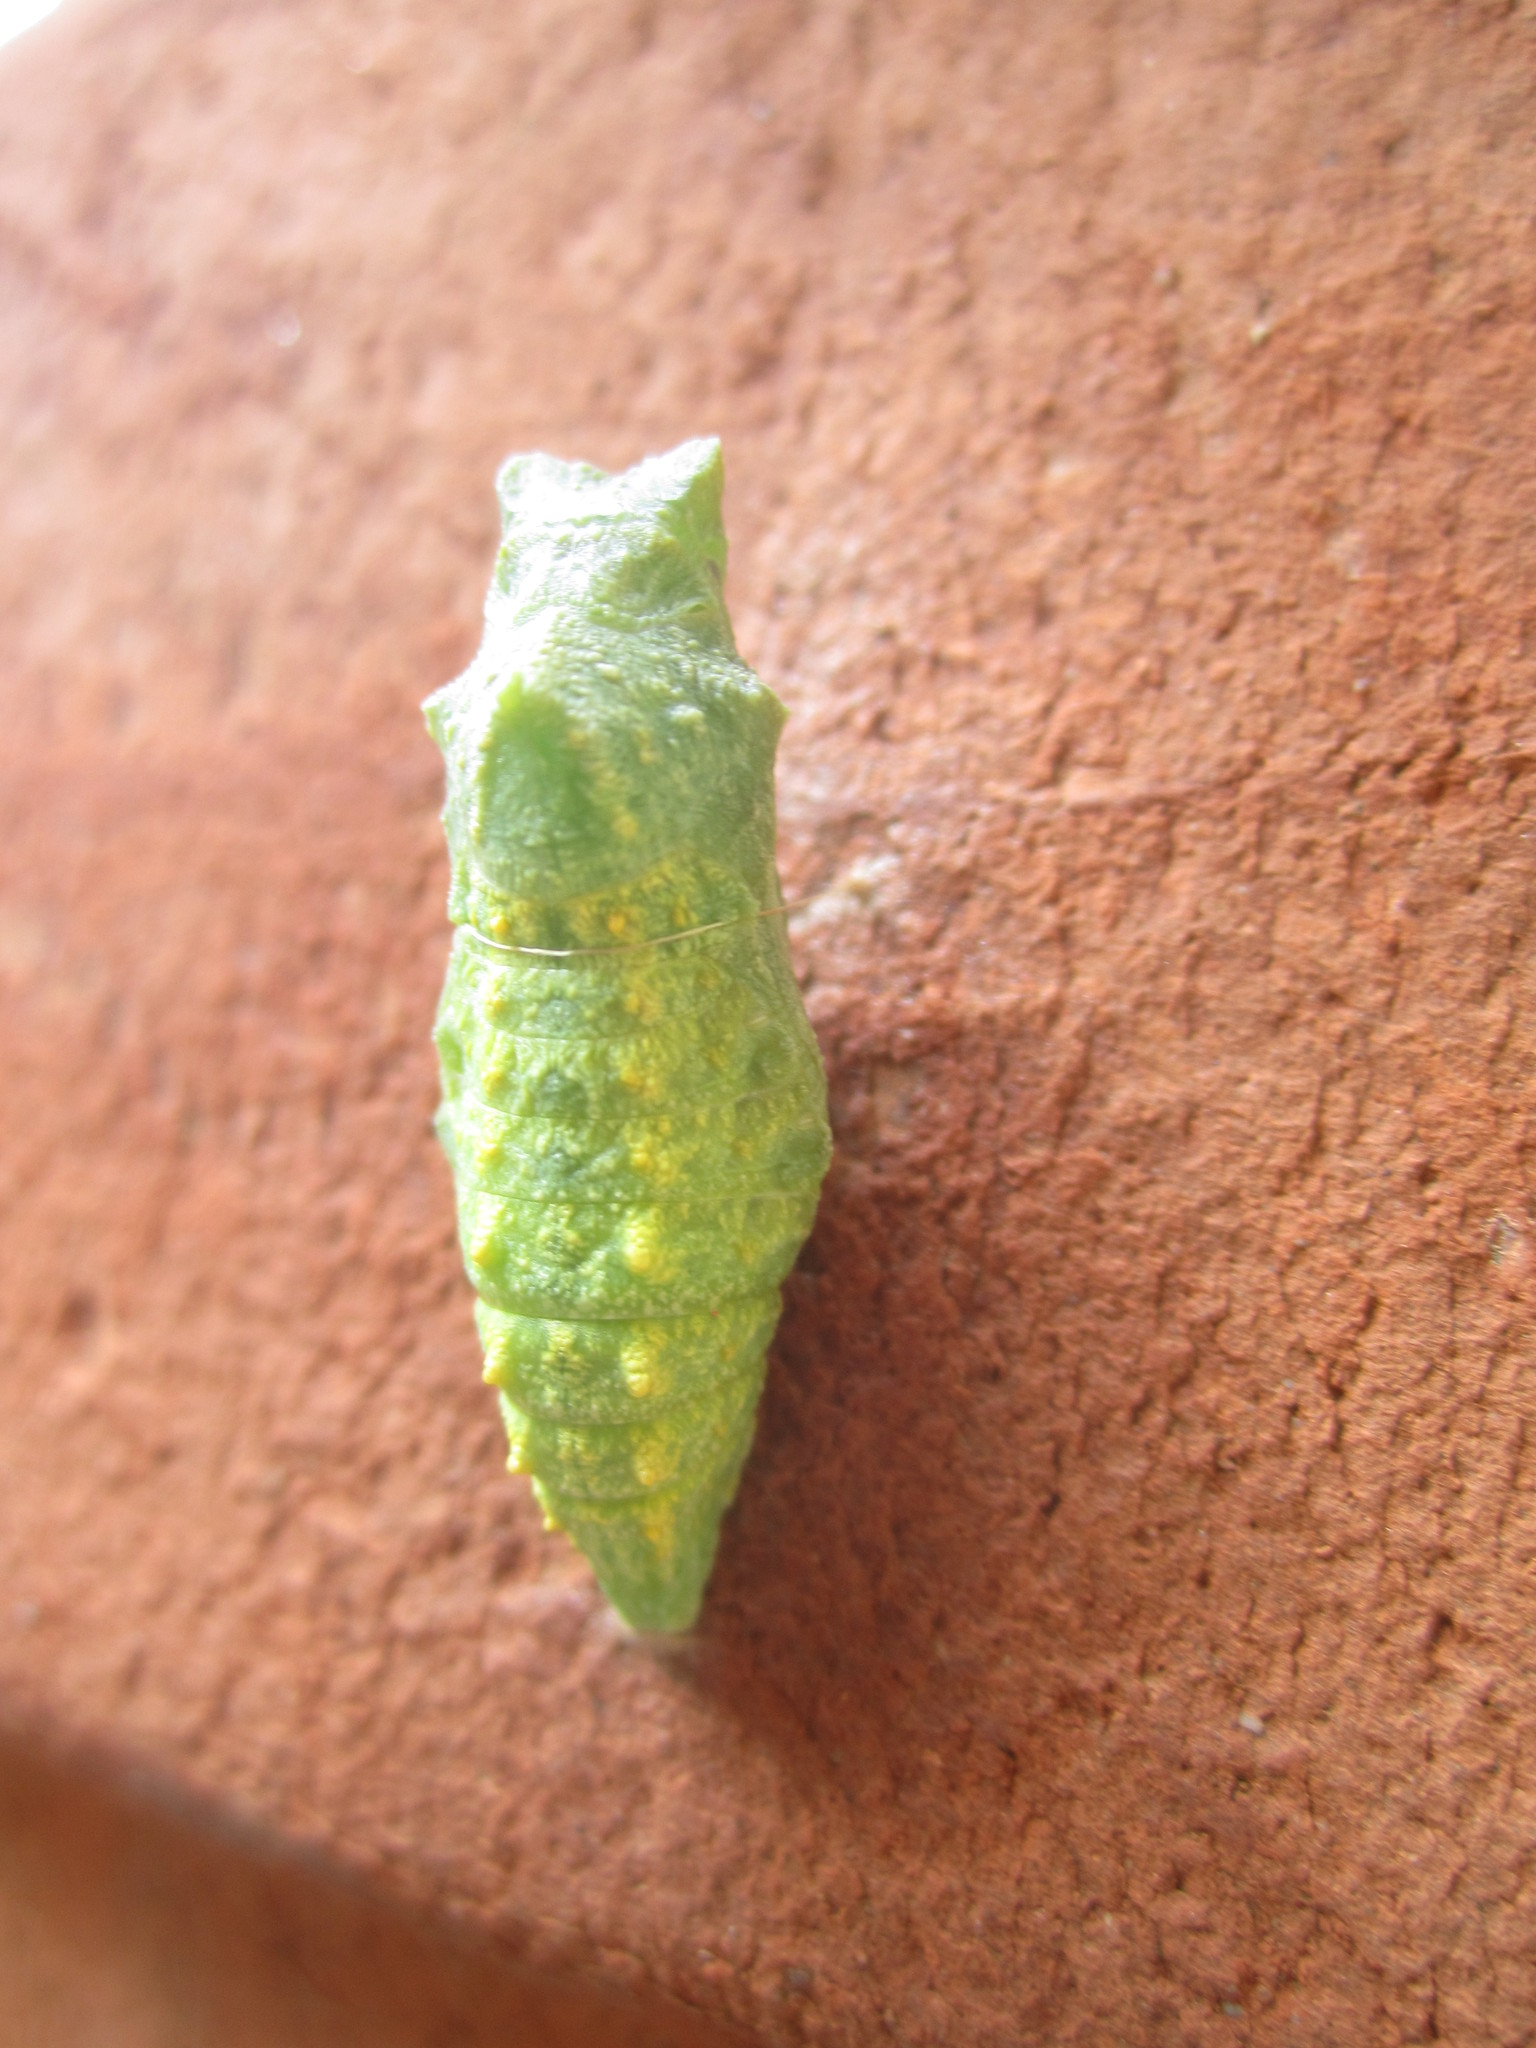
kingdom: Animalia
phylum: Arthropoda
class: Insecta
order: Lepidoptera
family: Papilionidae
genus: Papilio
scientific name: Papilio machaon
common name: Swallowtail
